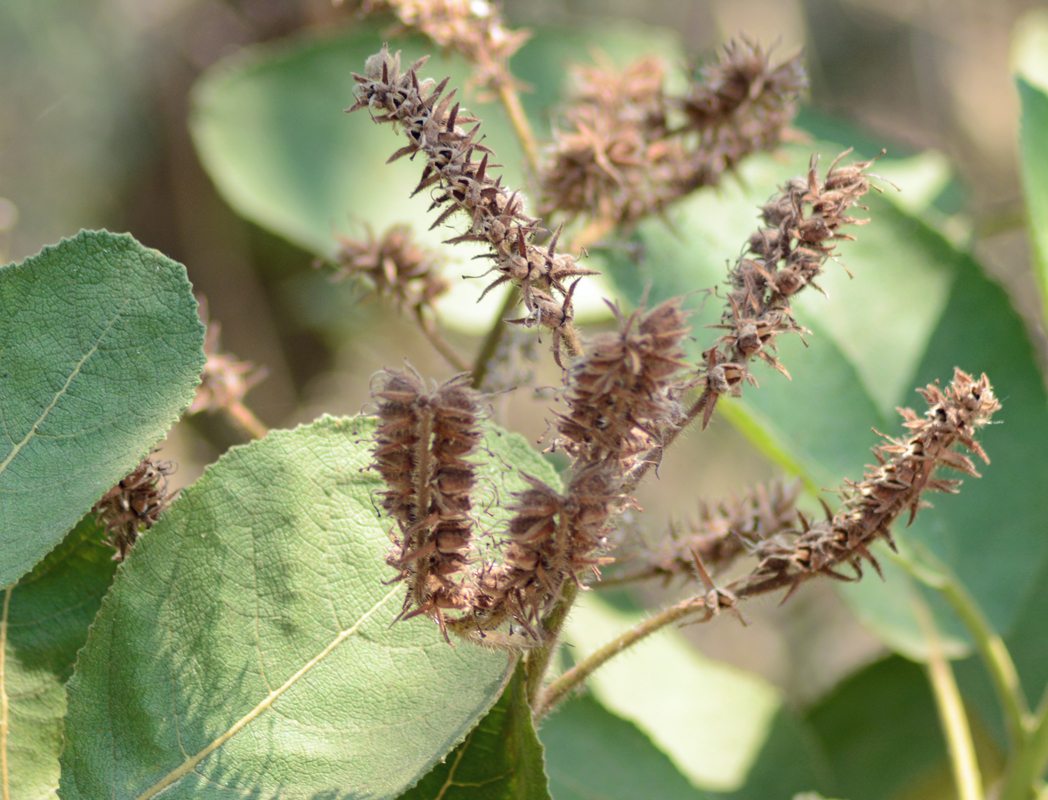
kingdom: Plantae
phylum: Tracheophyta
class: Magnoliopsida
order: Boraginales
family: Namaceae
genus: Wigandia
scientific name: Wigandia urens
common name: Caracus wigandia
